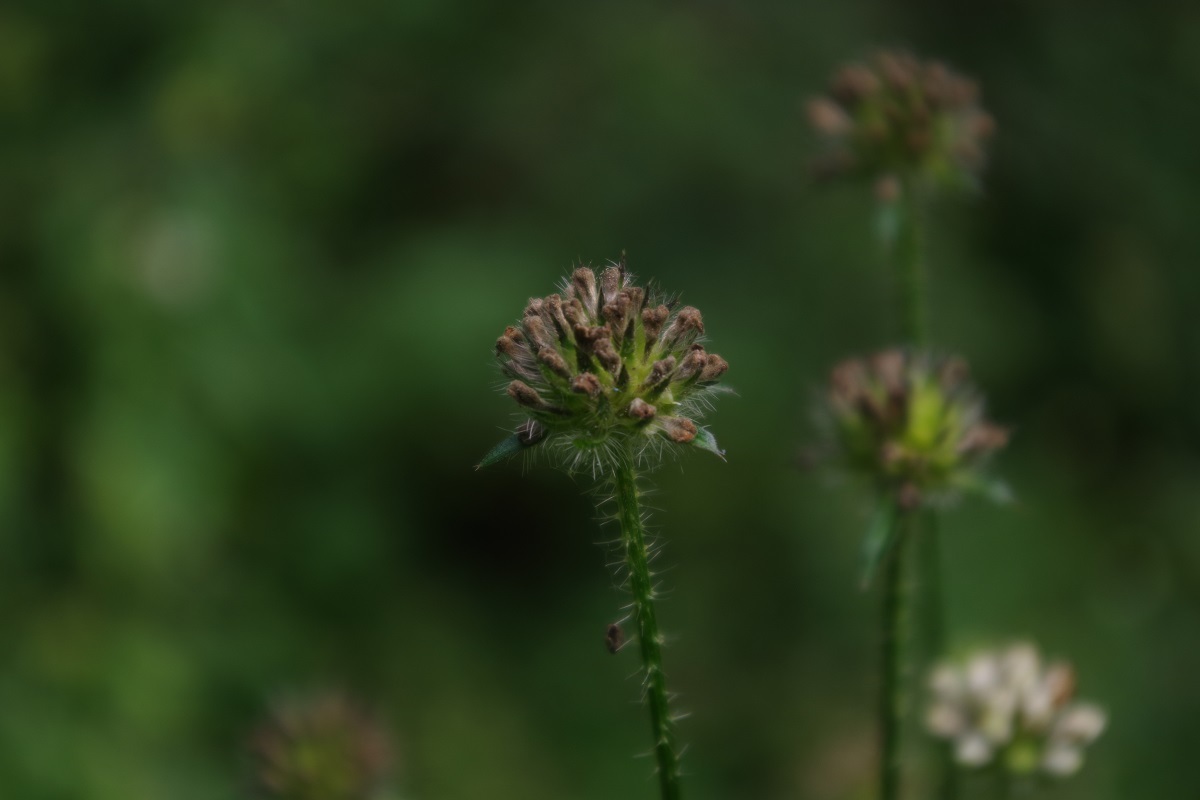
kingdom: Plantae
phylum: Tracheophyta
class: Magnoliopsida
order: Dipsacales
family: Caprifoliaceae
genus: Dipsacus
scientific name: Dipsacus pilosus
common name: Small teasel
